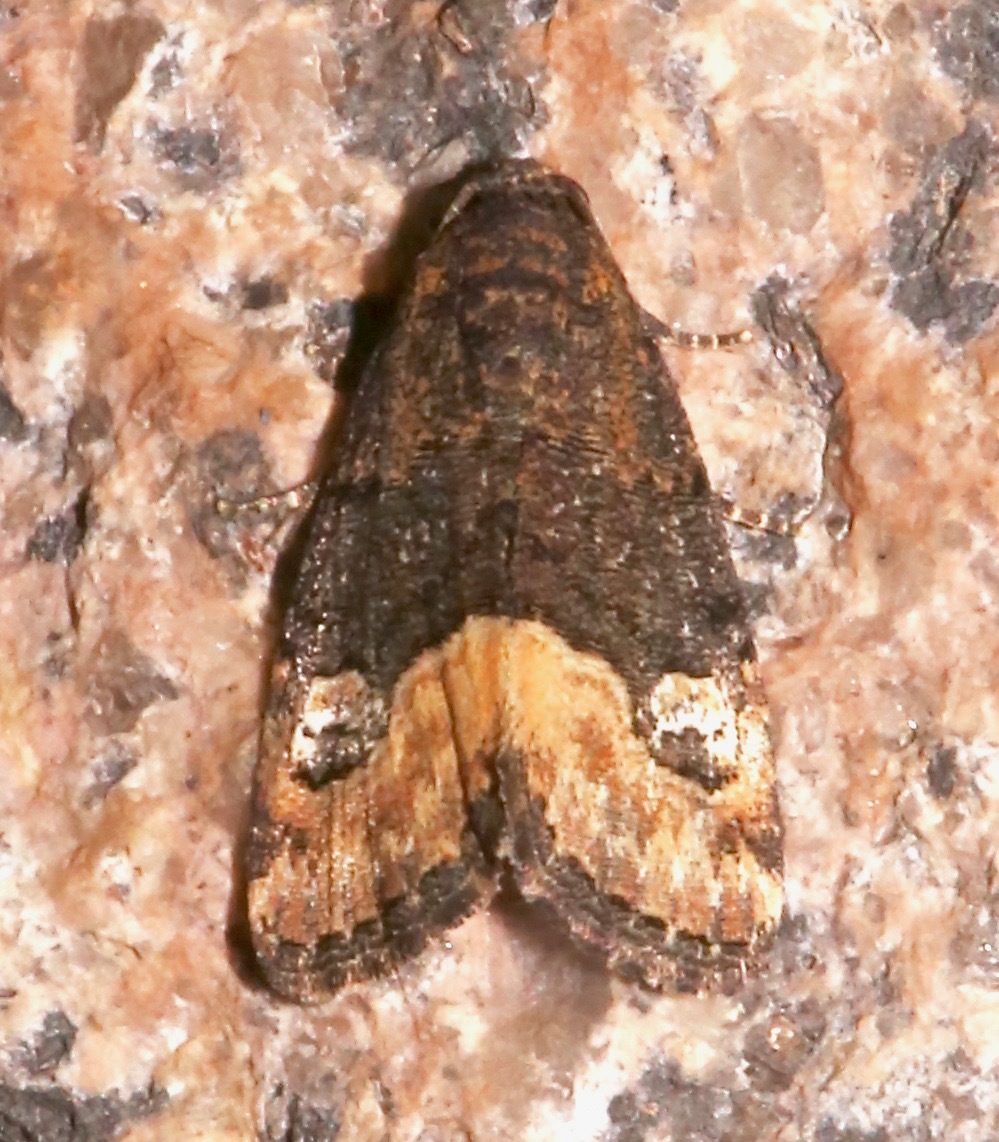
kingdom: Animalia
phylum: Arthropoda
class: Insecta
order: Lepidoptera
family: Noctuidae
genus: Ozarba
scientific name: Ozarba propera
